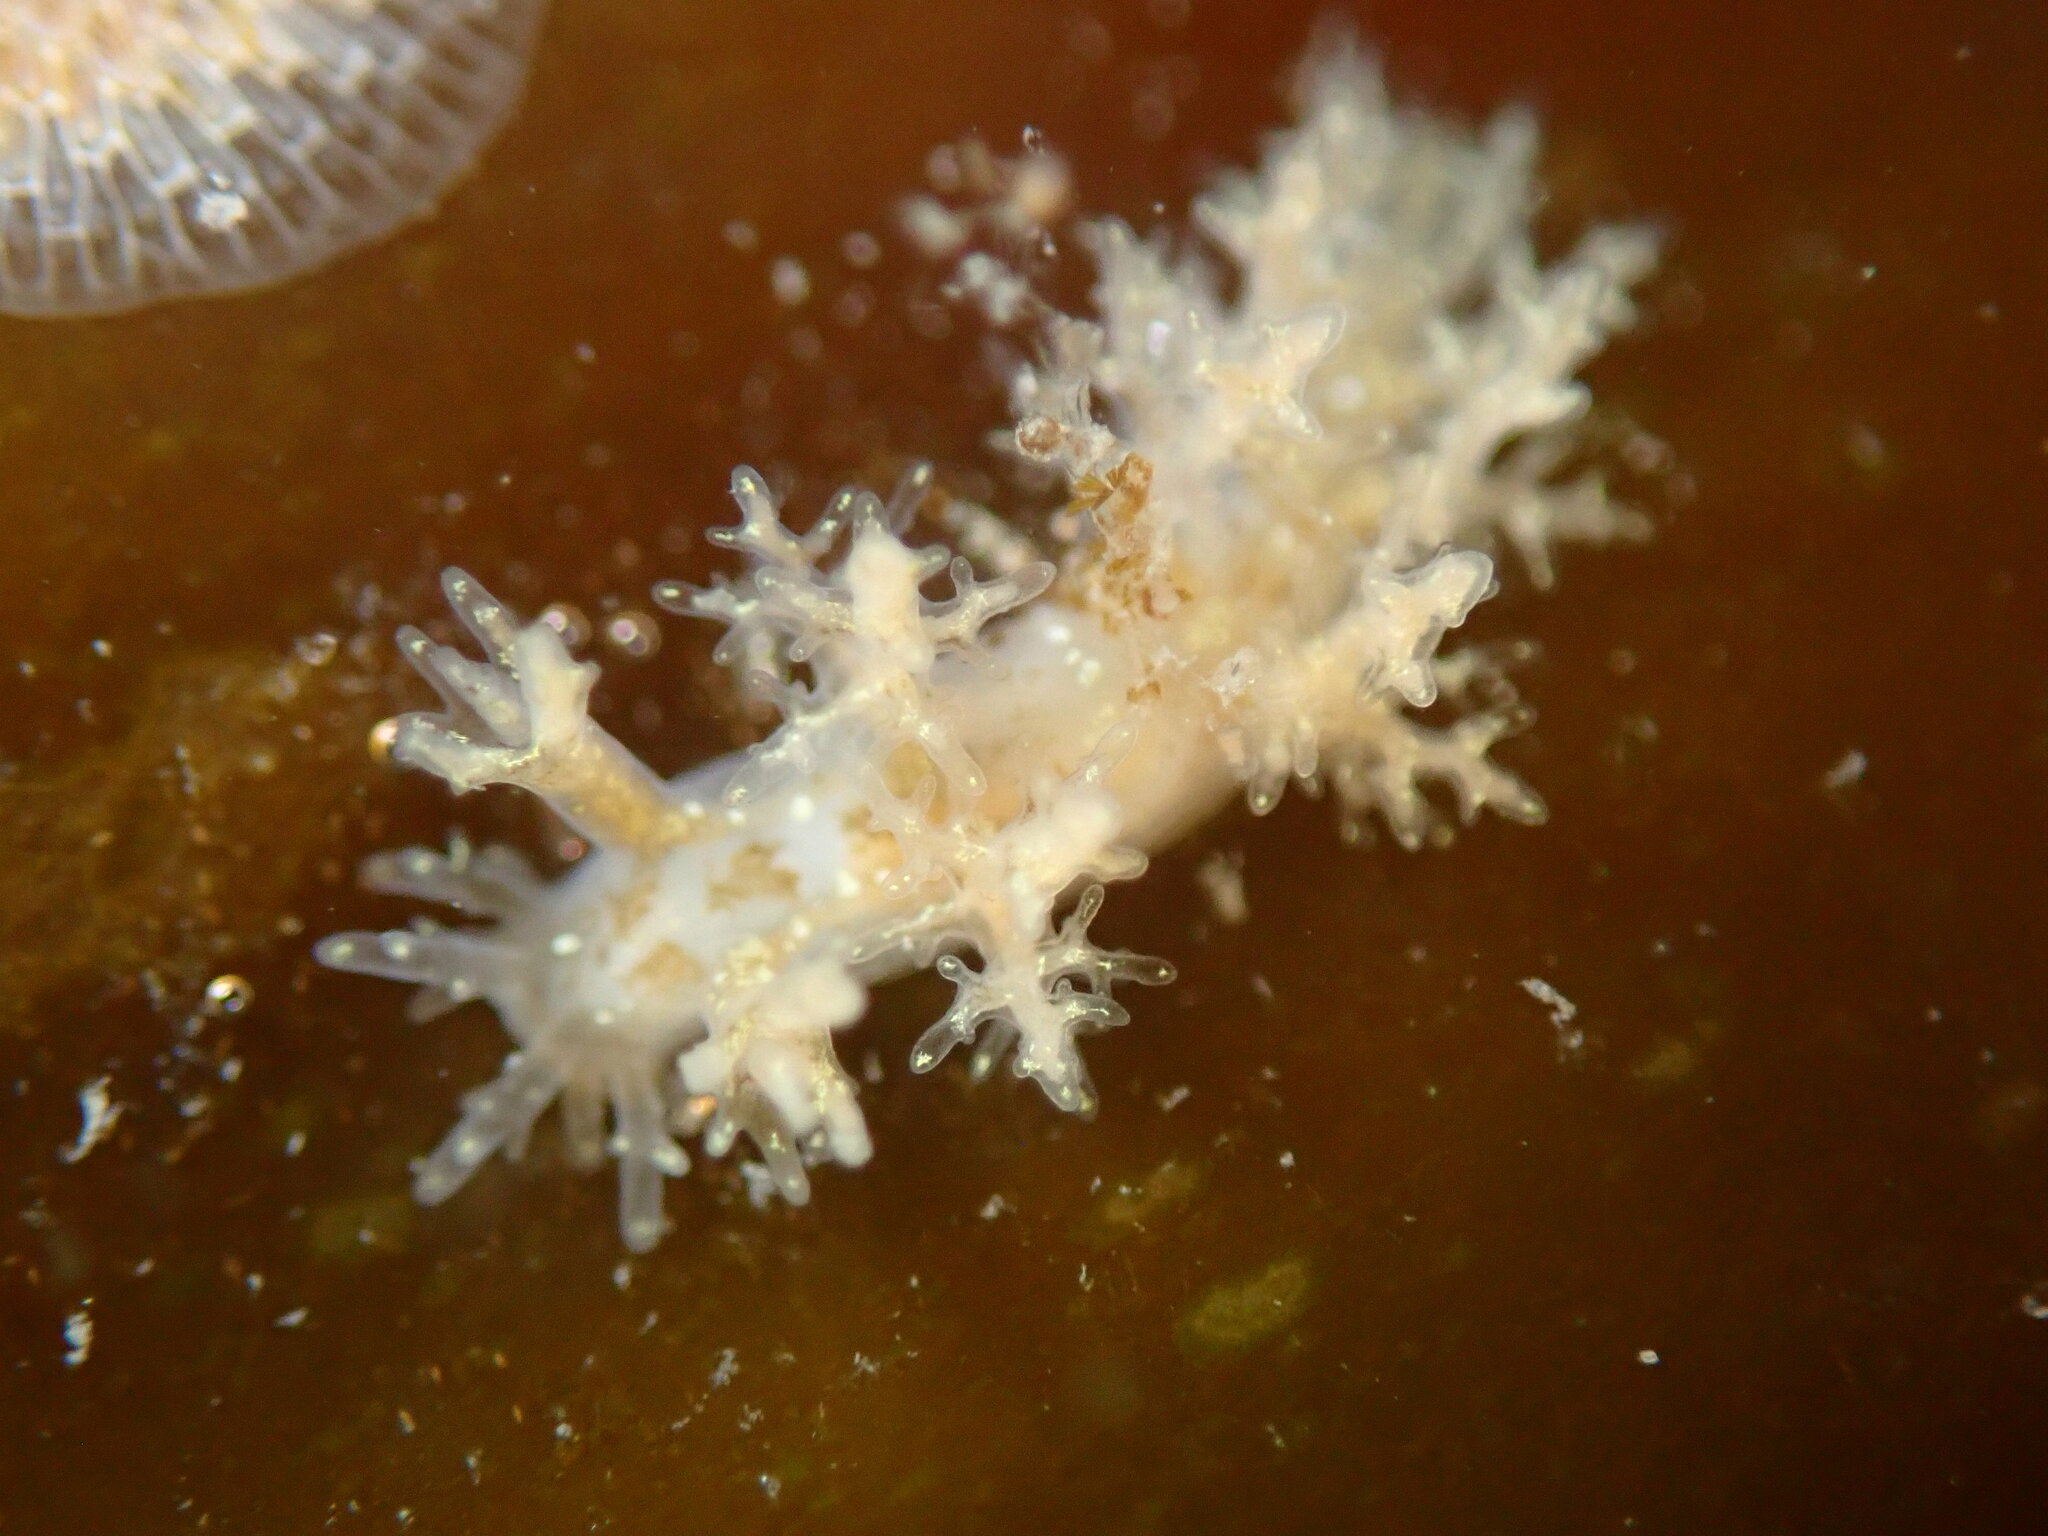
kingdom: Animalia
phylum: Mollusca
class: Gastropoda
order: Nudibranchia
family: Dendronotidae
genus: Dendronotus
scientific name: Dendronotus venustus
